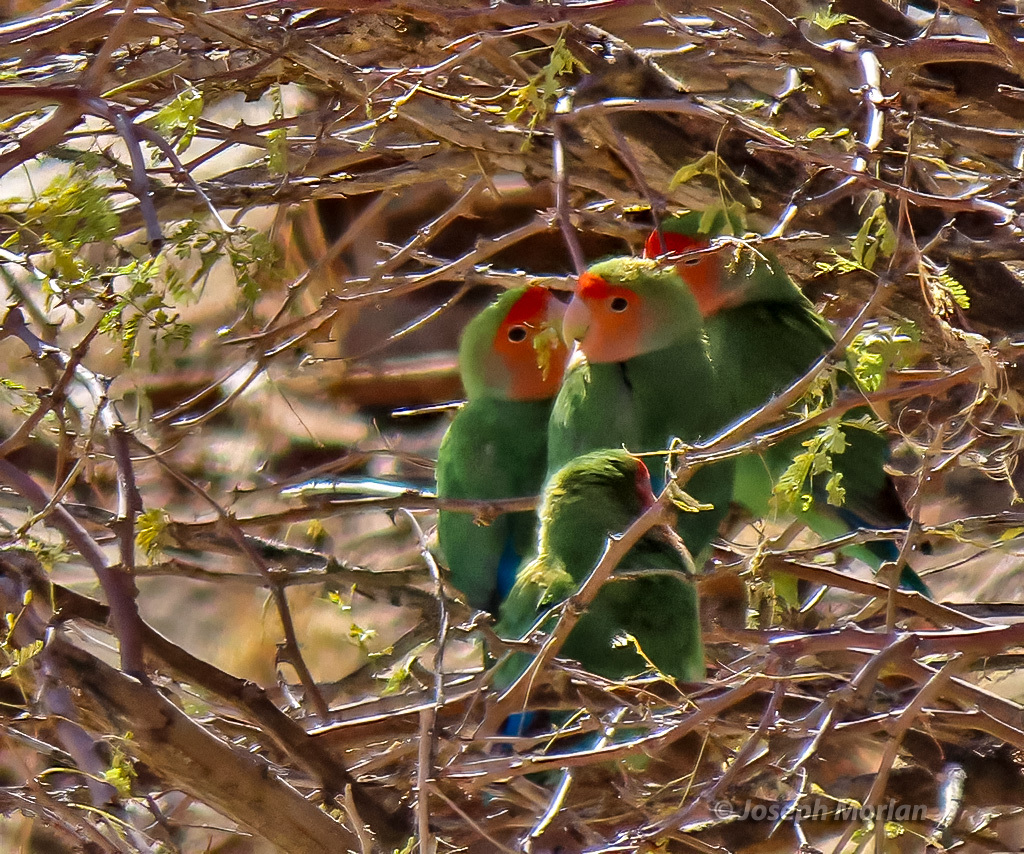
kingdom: Animalia
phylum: Chordata
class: Aves
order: Psittaciformes
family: Psittacidae
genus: Agapornis
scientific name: Agapornis roseicollis
